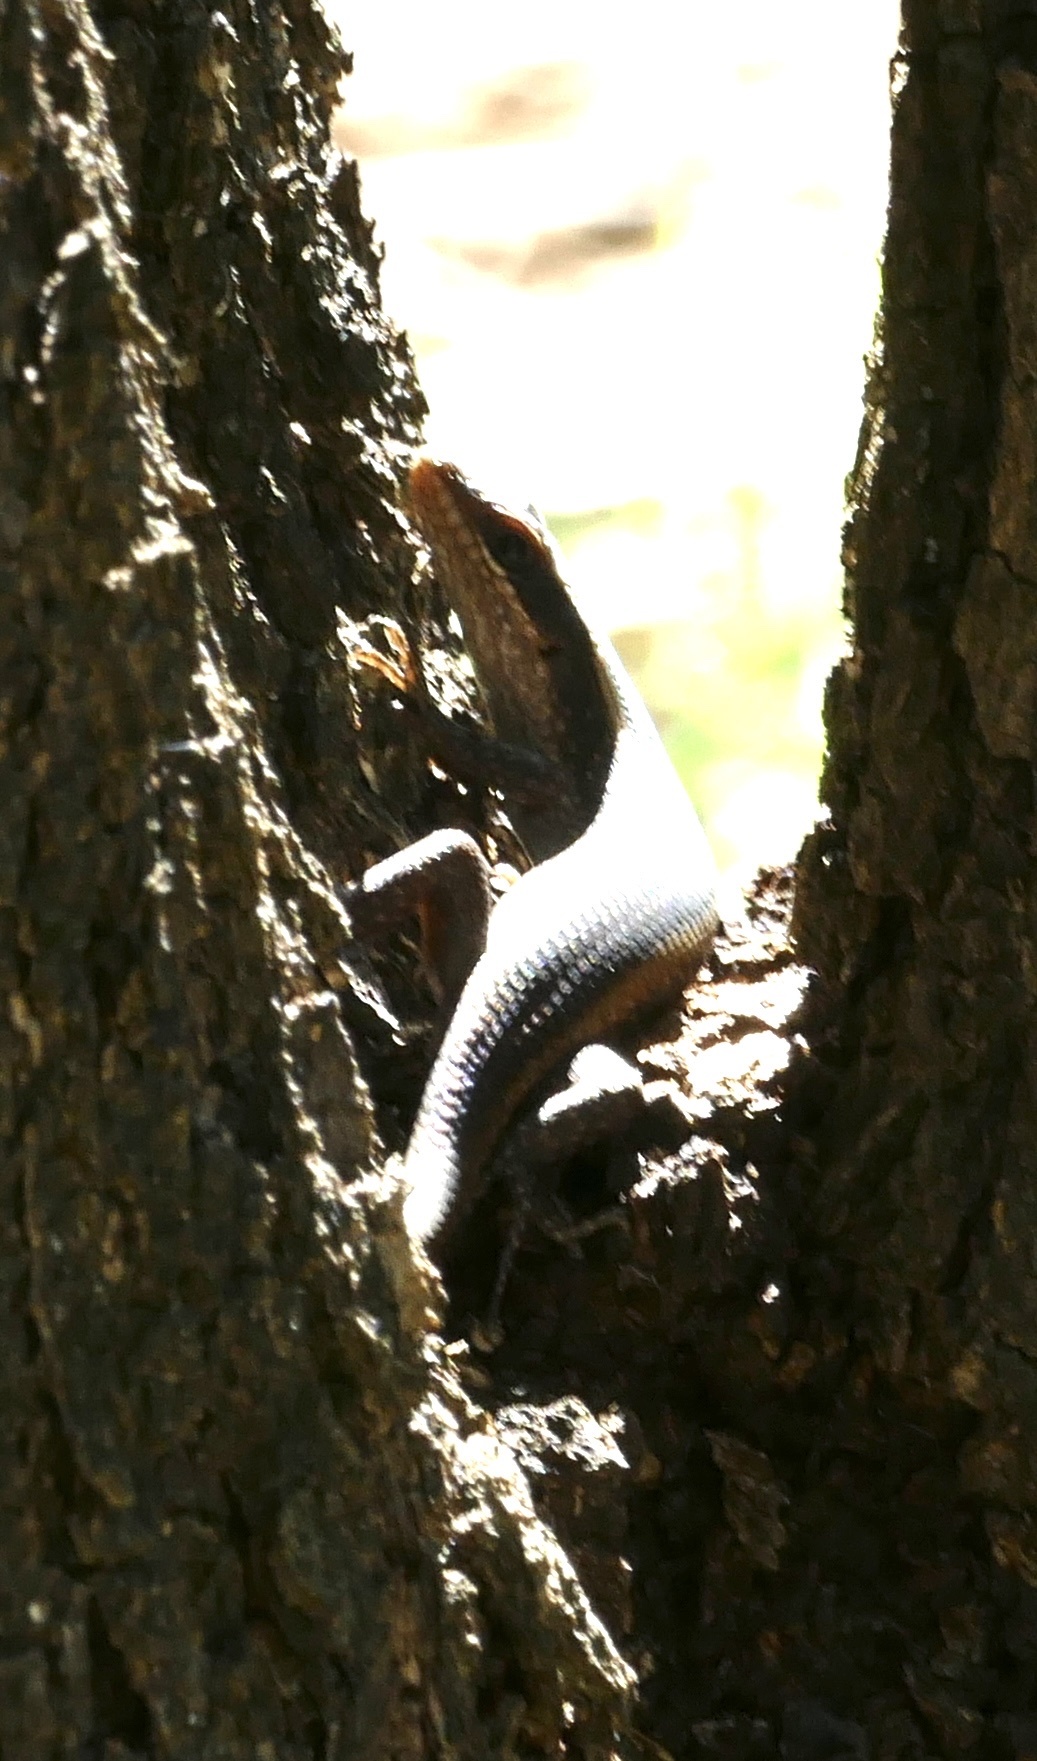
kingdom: Animalia
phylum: Chordata
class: Squamata
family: Scincidae
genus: Trachylepis
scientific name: Trachylepis striata
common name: African striped mabuya
